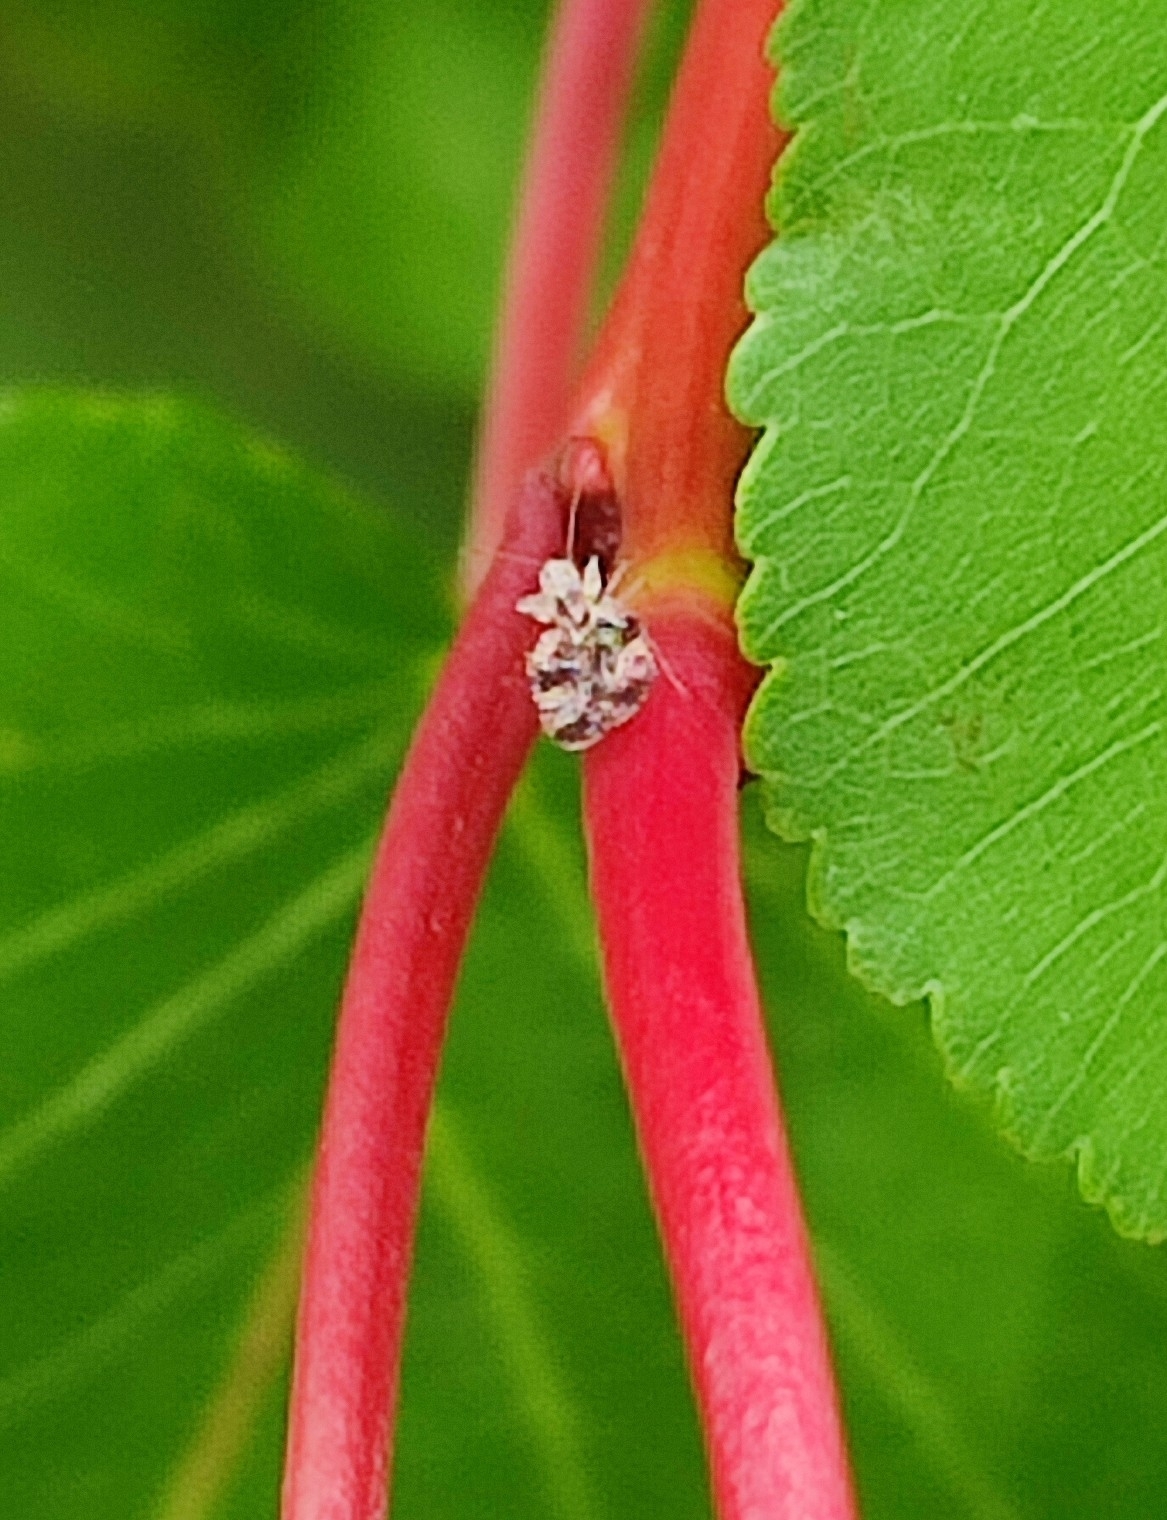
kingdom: Animalia
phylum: Arthropoda
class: Insecta
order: Hemiptera
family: Tingidae
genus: Stephanitis
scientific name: Stephanitis pyri
